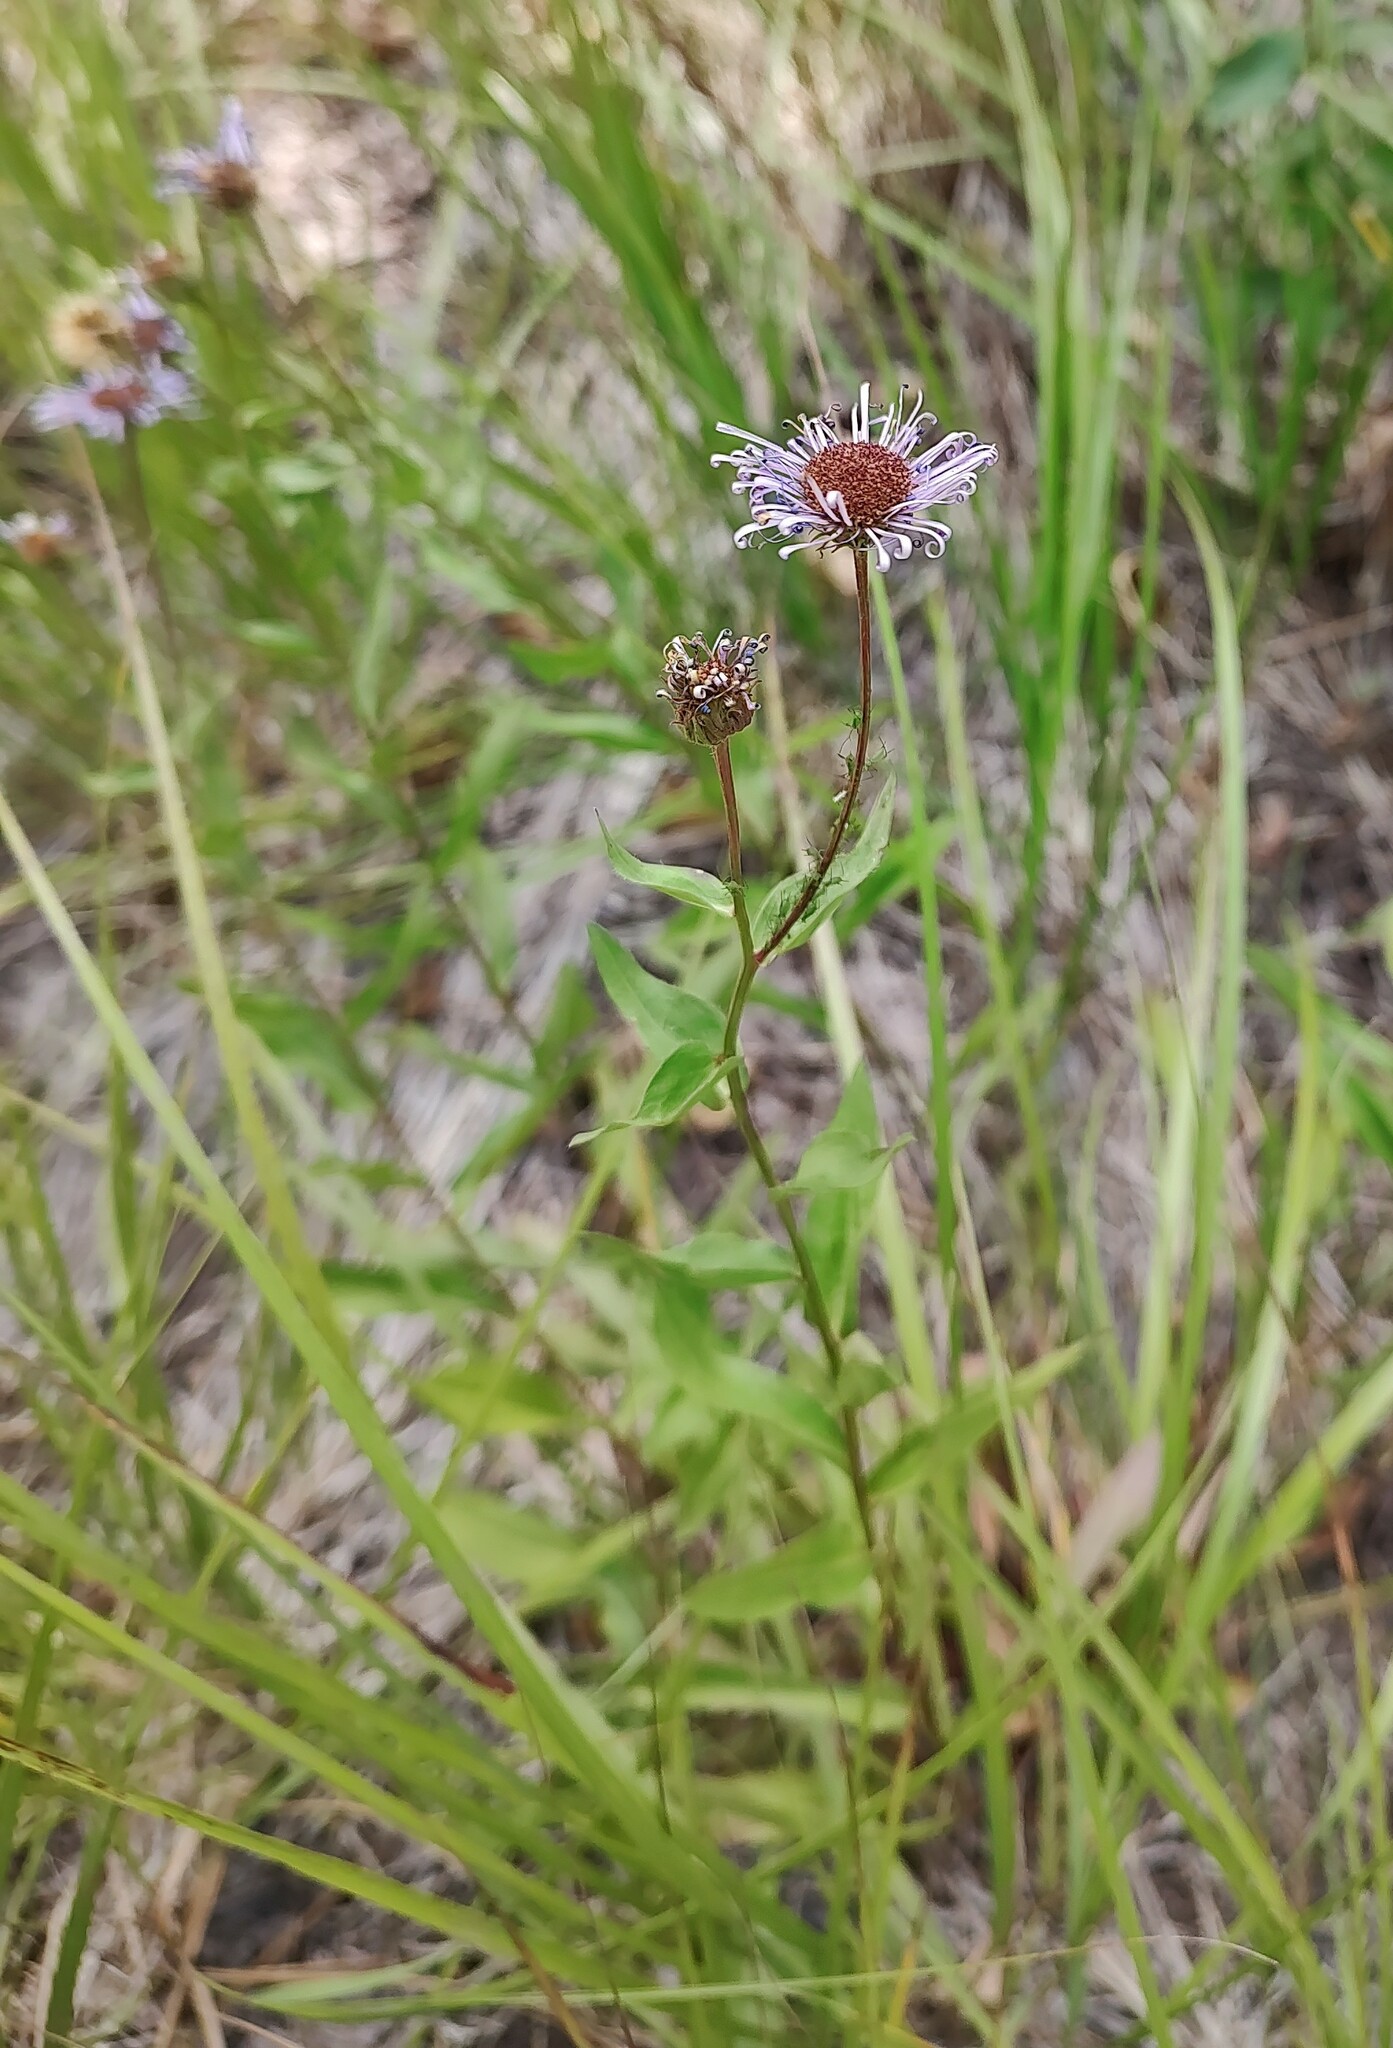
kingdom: Plantae
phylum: Tracheophyta
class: Magnoliopsida
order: Asterales
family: Asteraceae
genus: Erigeron
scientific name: Erigeron speciosus
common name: Aspen fleabane
